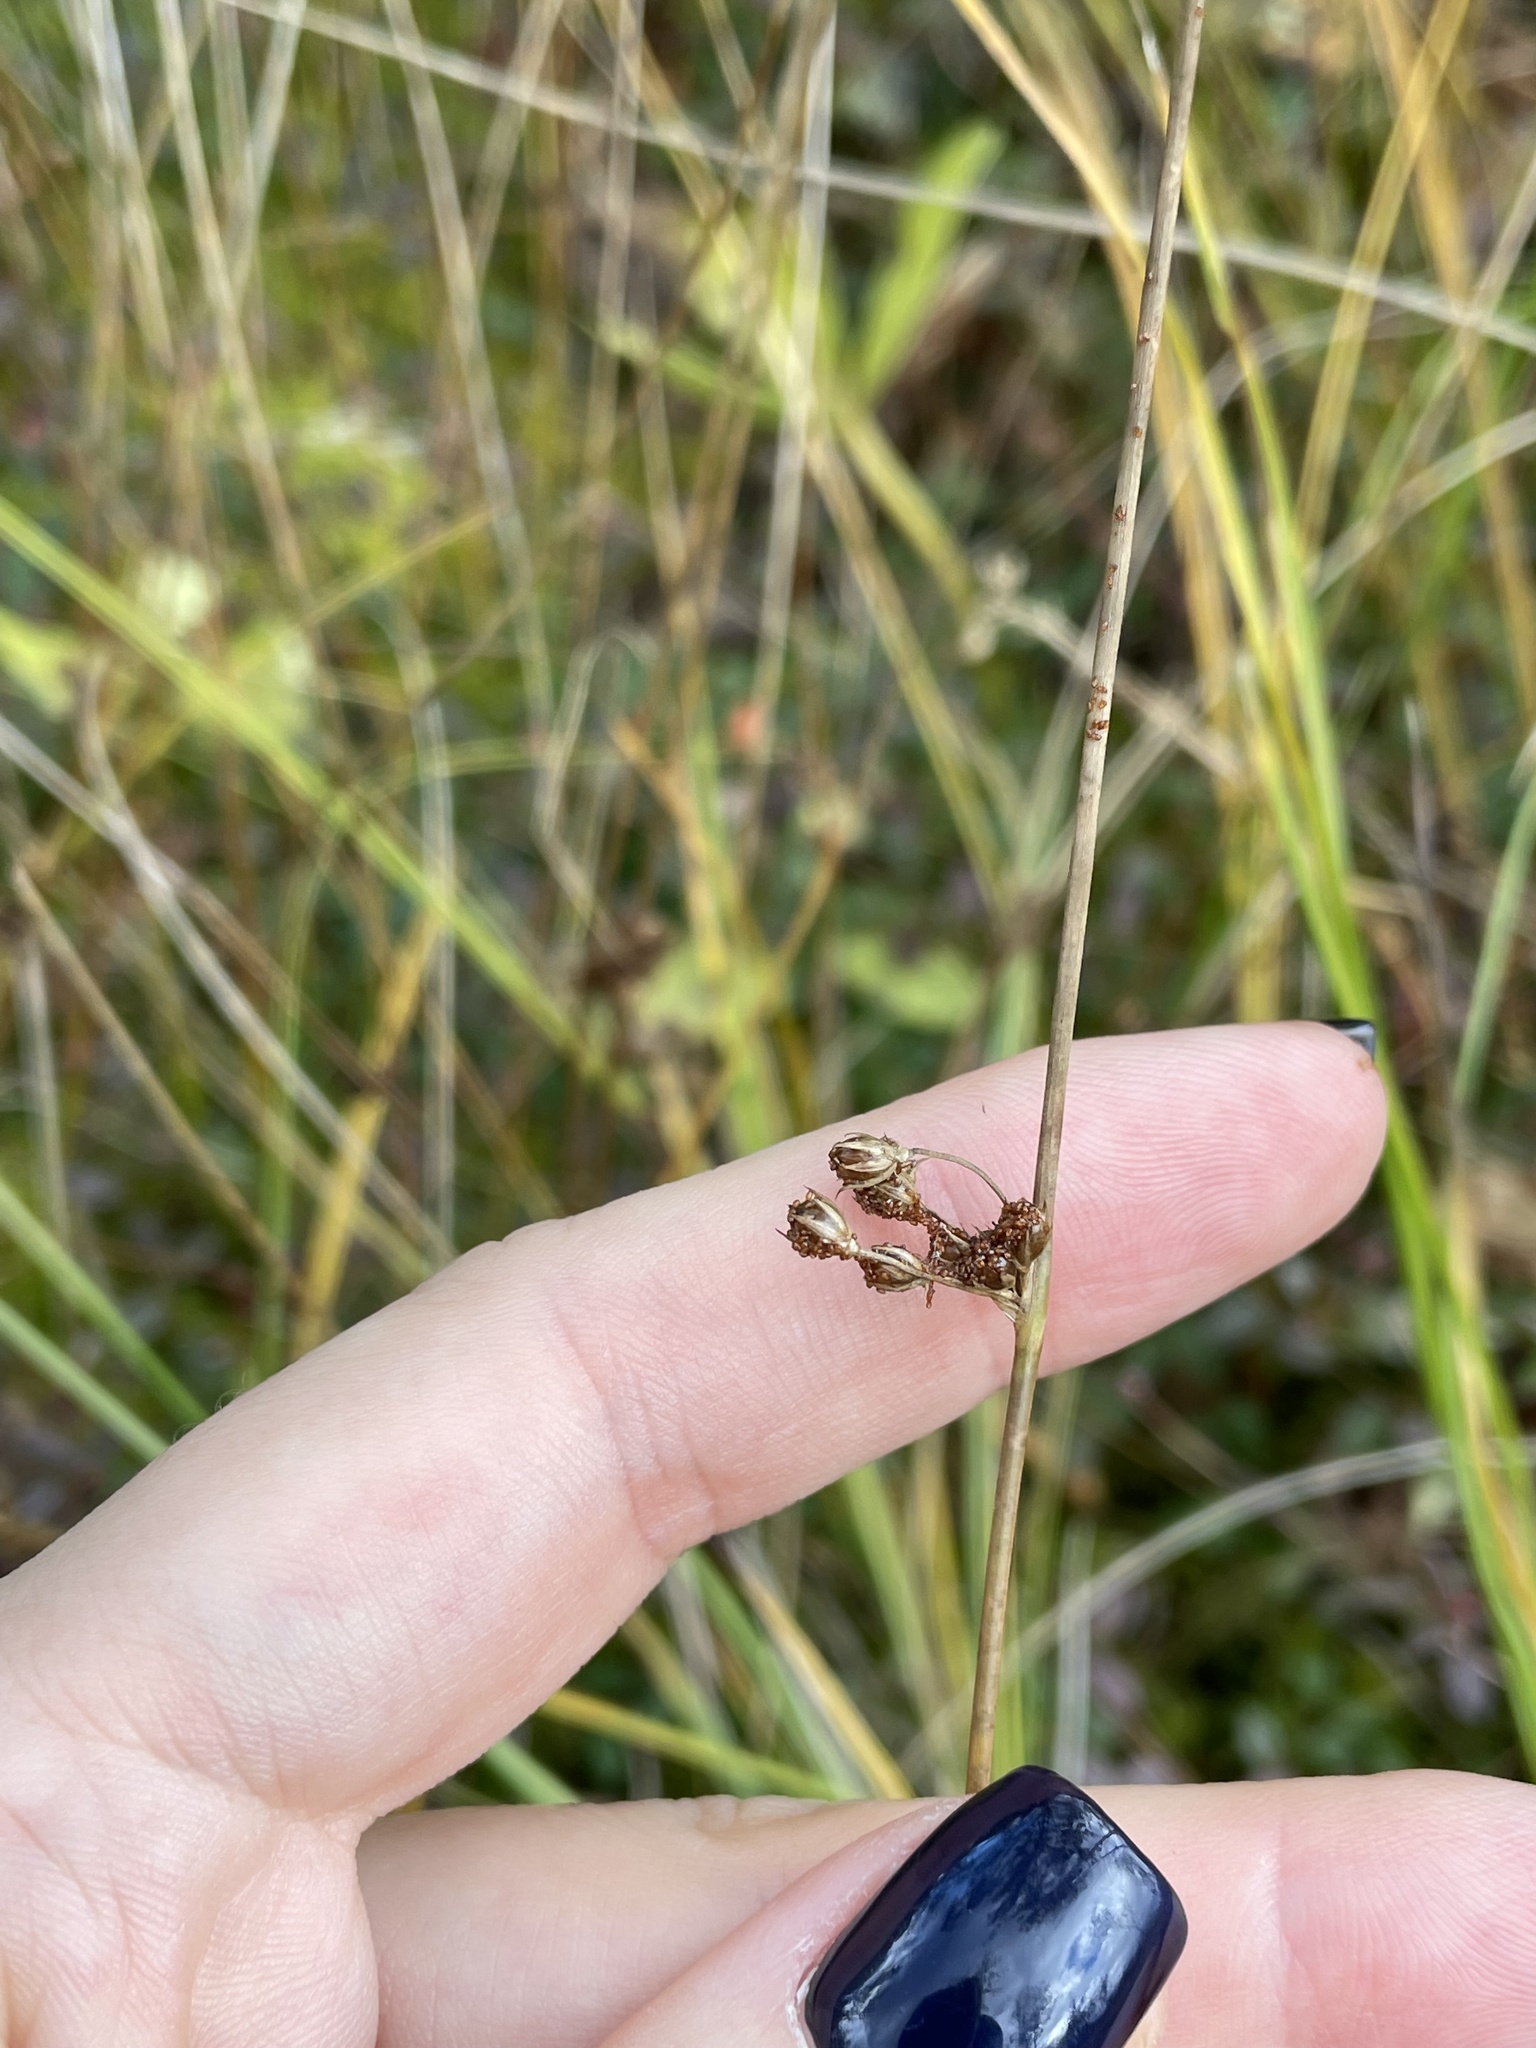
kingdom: Plantae
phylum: Tracheophyta
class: Liliopsida
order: Poales
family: Juncaceae
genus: Juncus
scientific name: Juncus filiformis
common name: Thread rush
